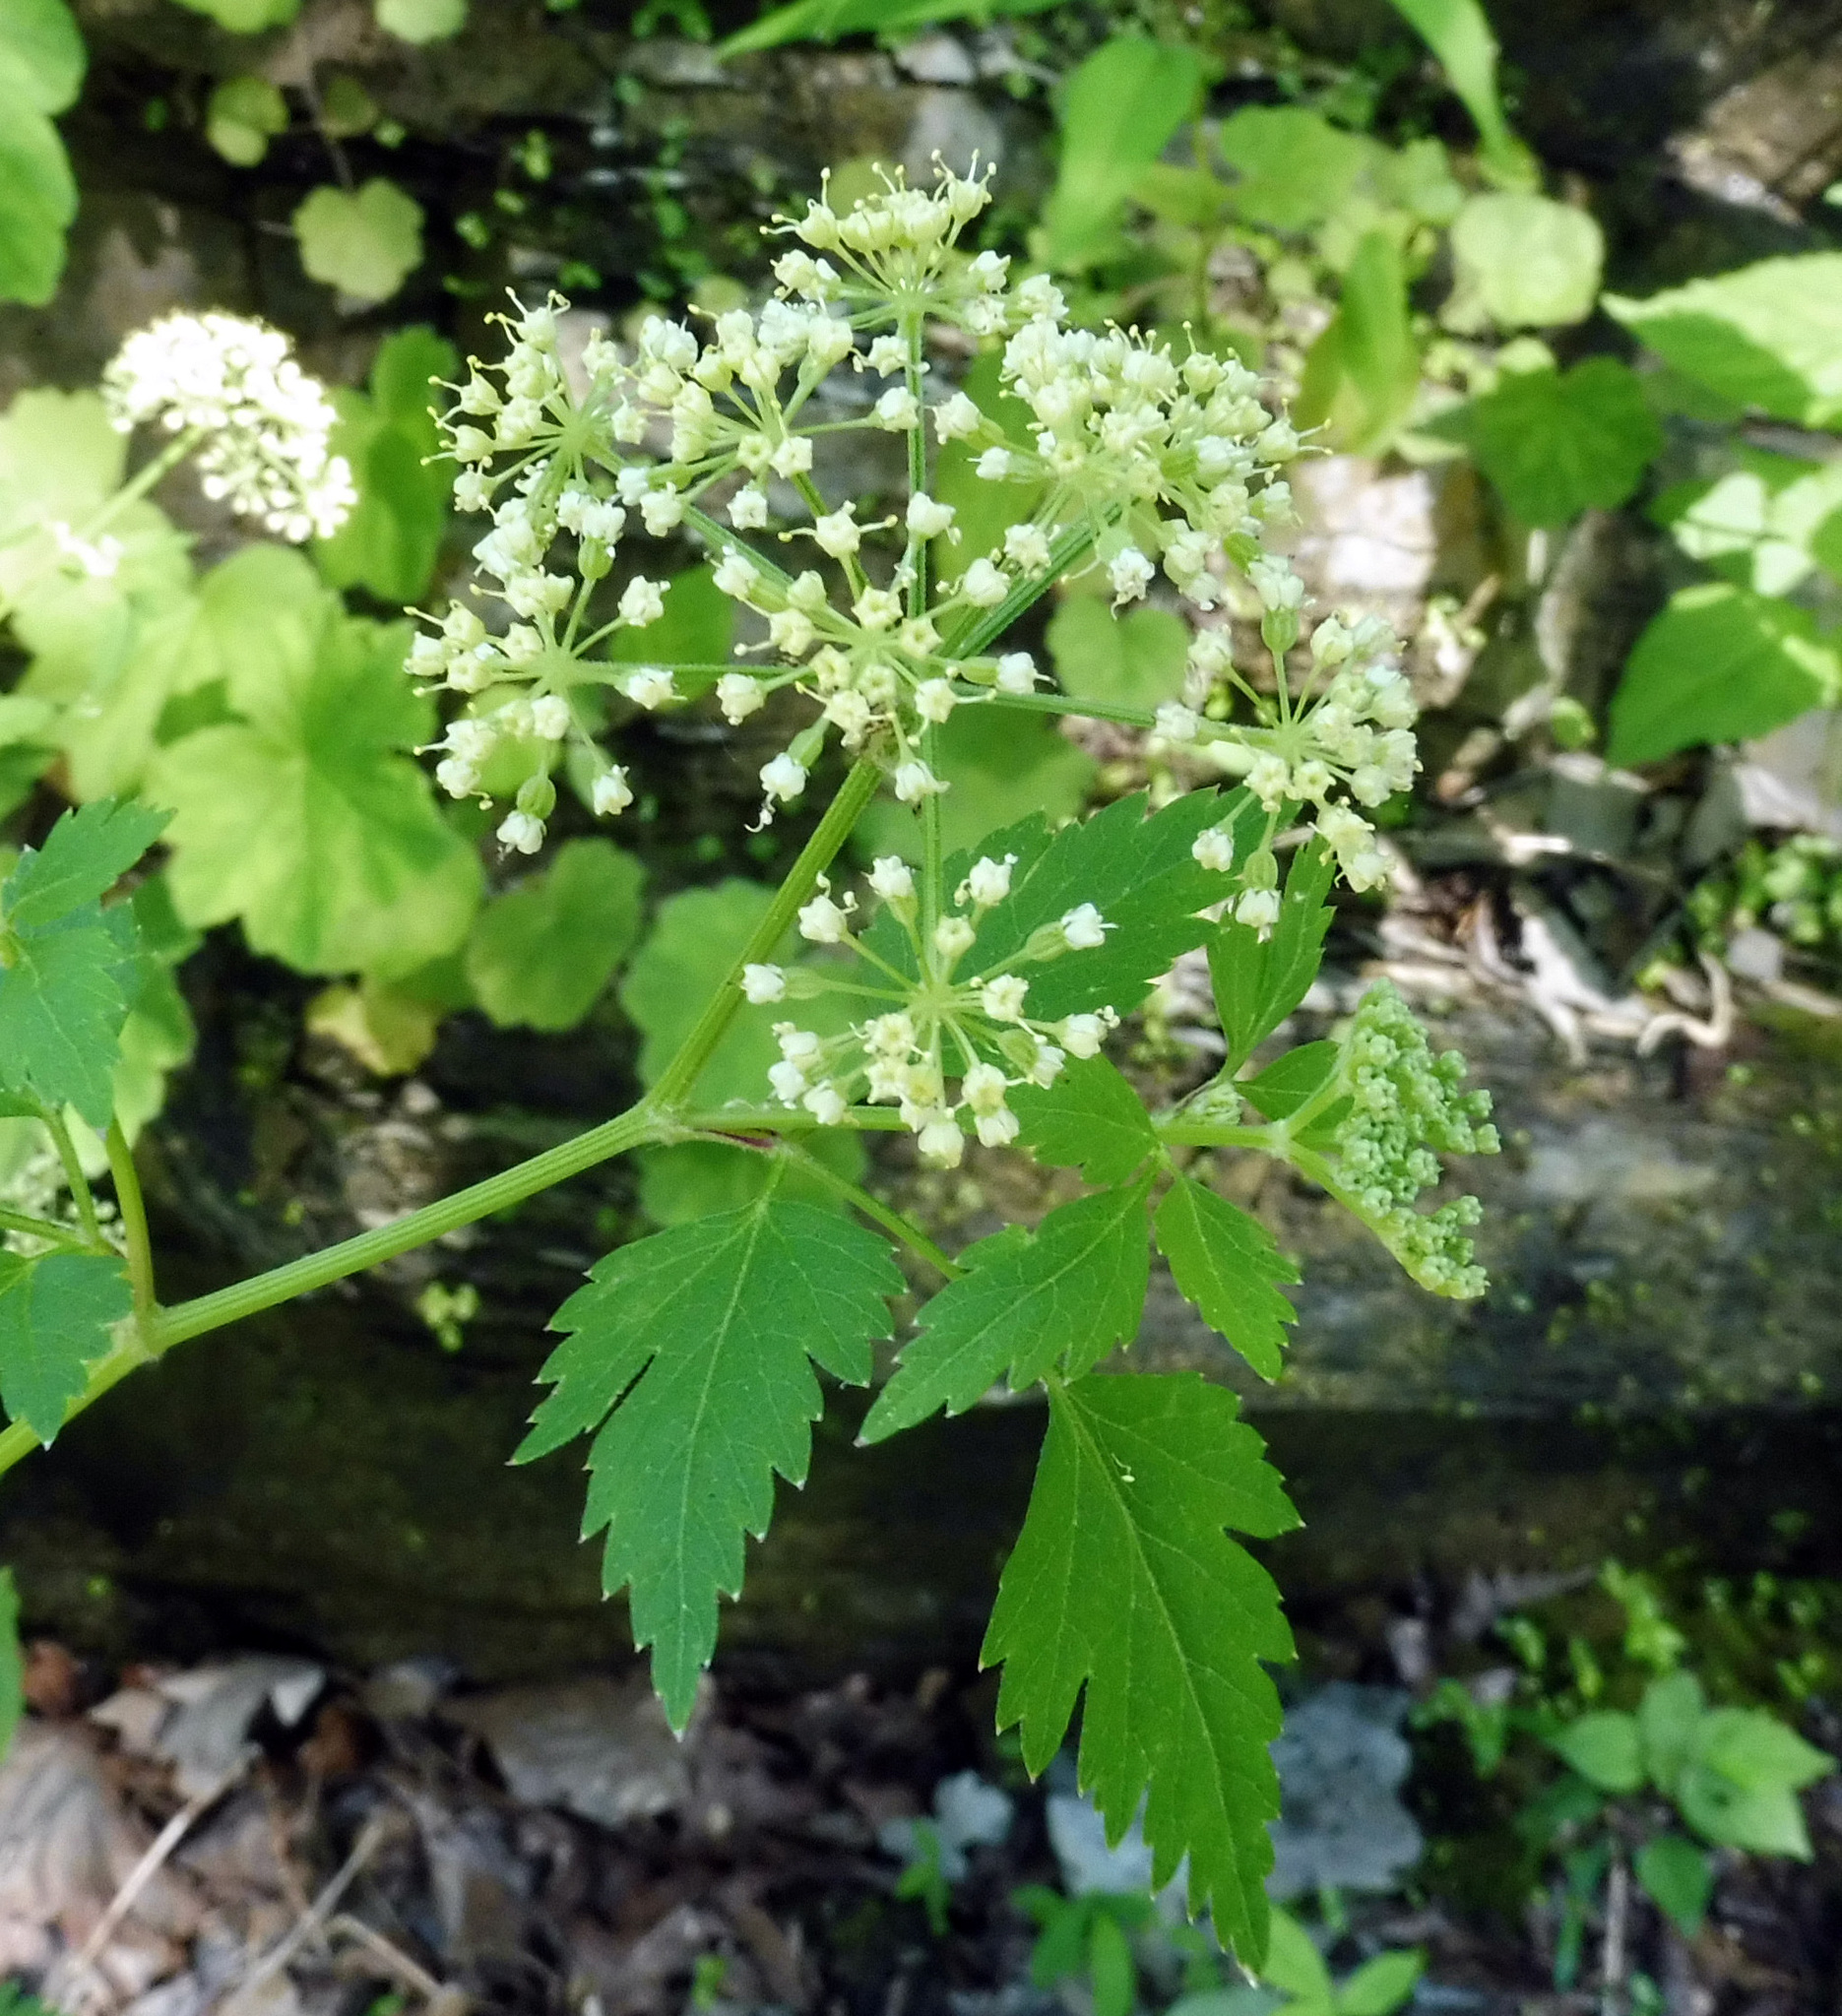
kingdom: Plantae
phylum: Tracheophyta
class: Magnoliopsida
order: Apiales
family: Apiaceae
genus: Thaspium
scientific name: Thaspium barbinode
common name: Bearded meadow-parsnip
